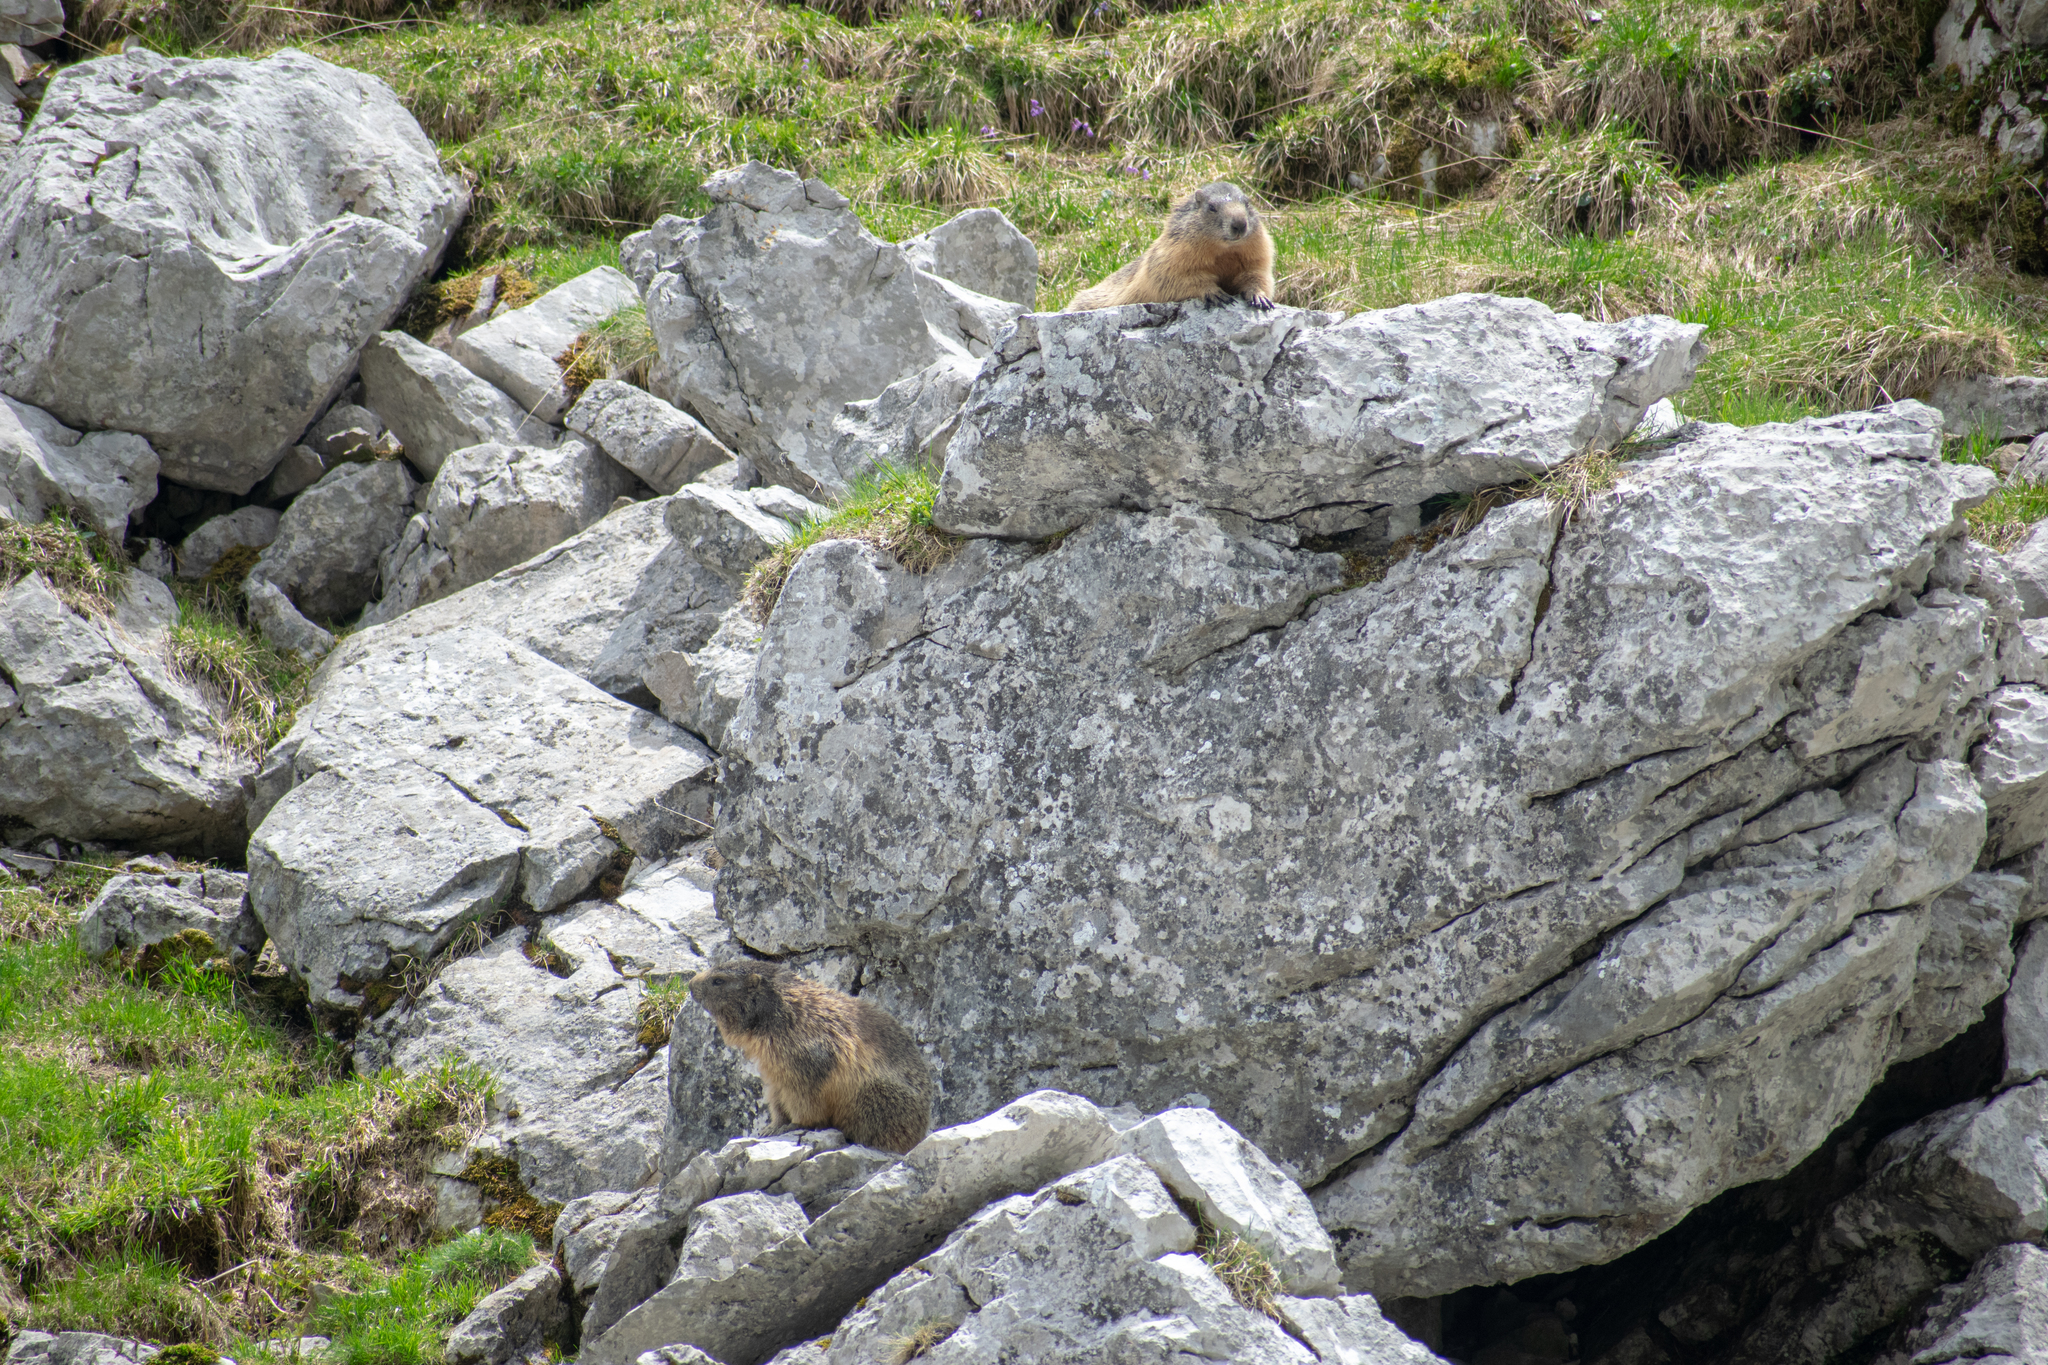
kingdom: Animalia
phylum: Chordata
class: Mammalia
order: Rodentia
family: Sciuridae
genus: Marmota
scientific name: Marmota marmota
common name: Alpine marmot
